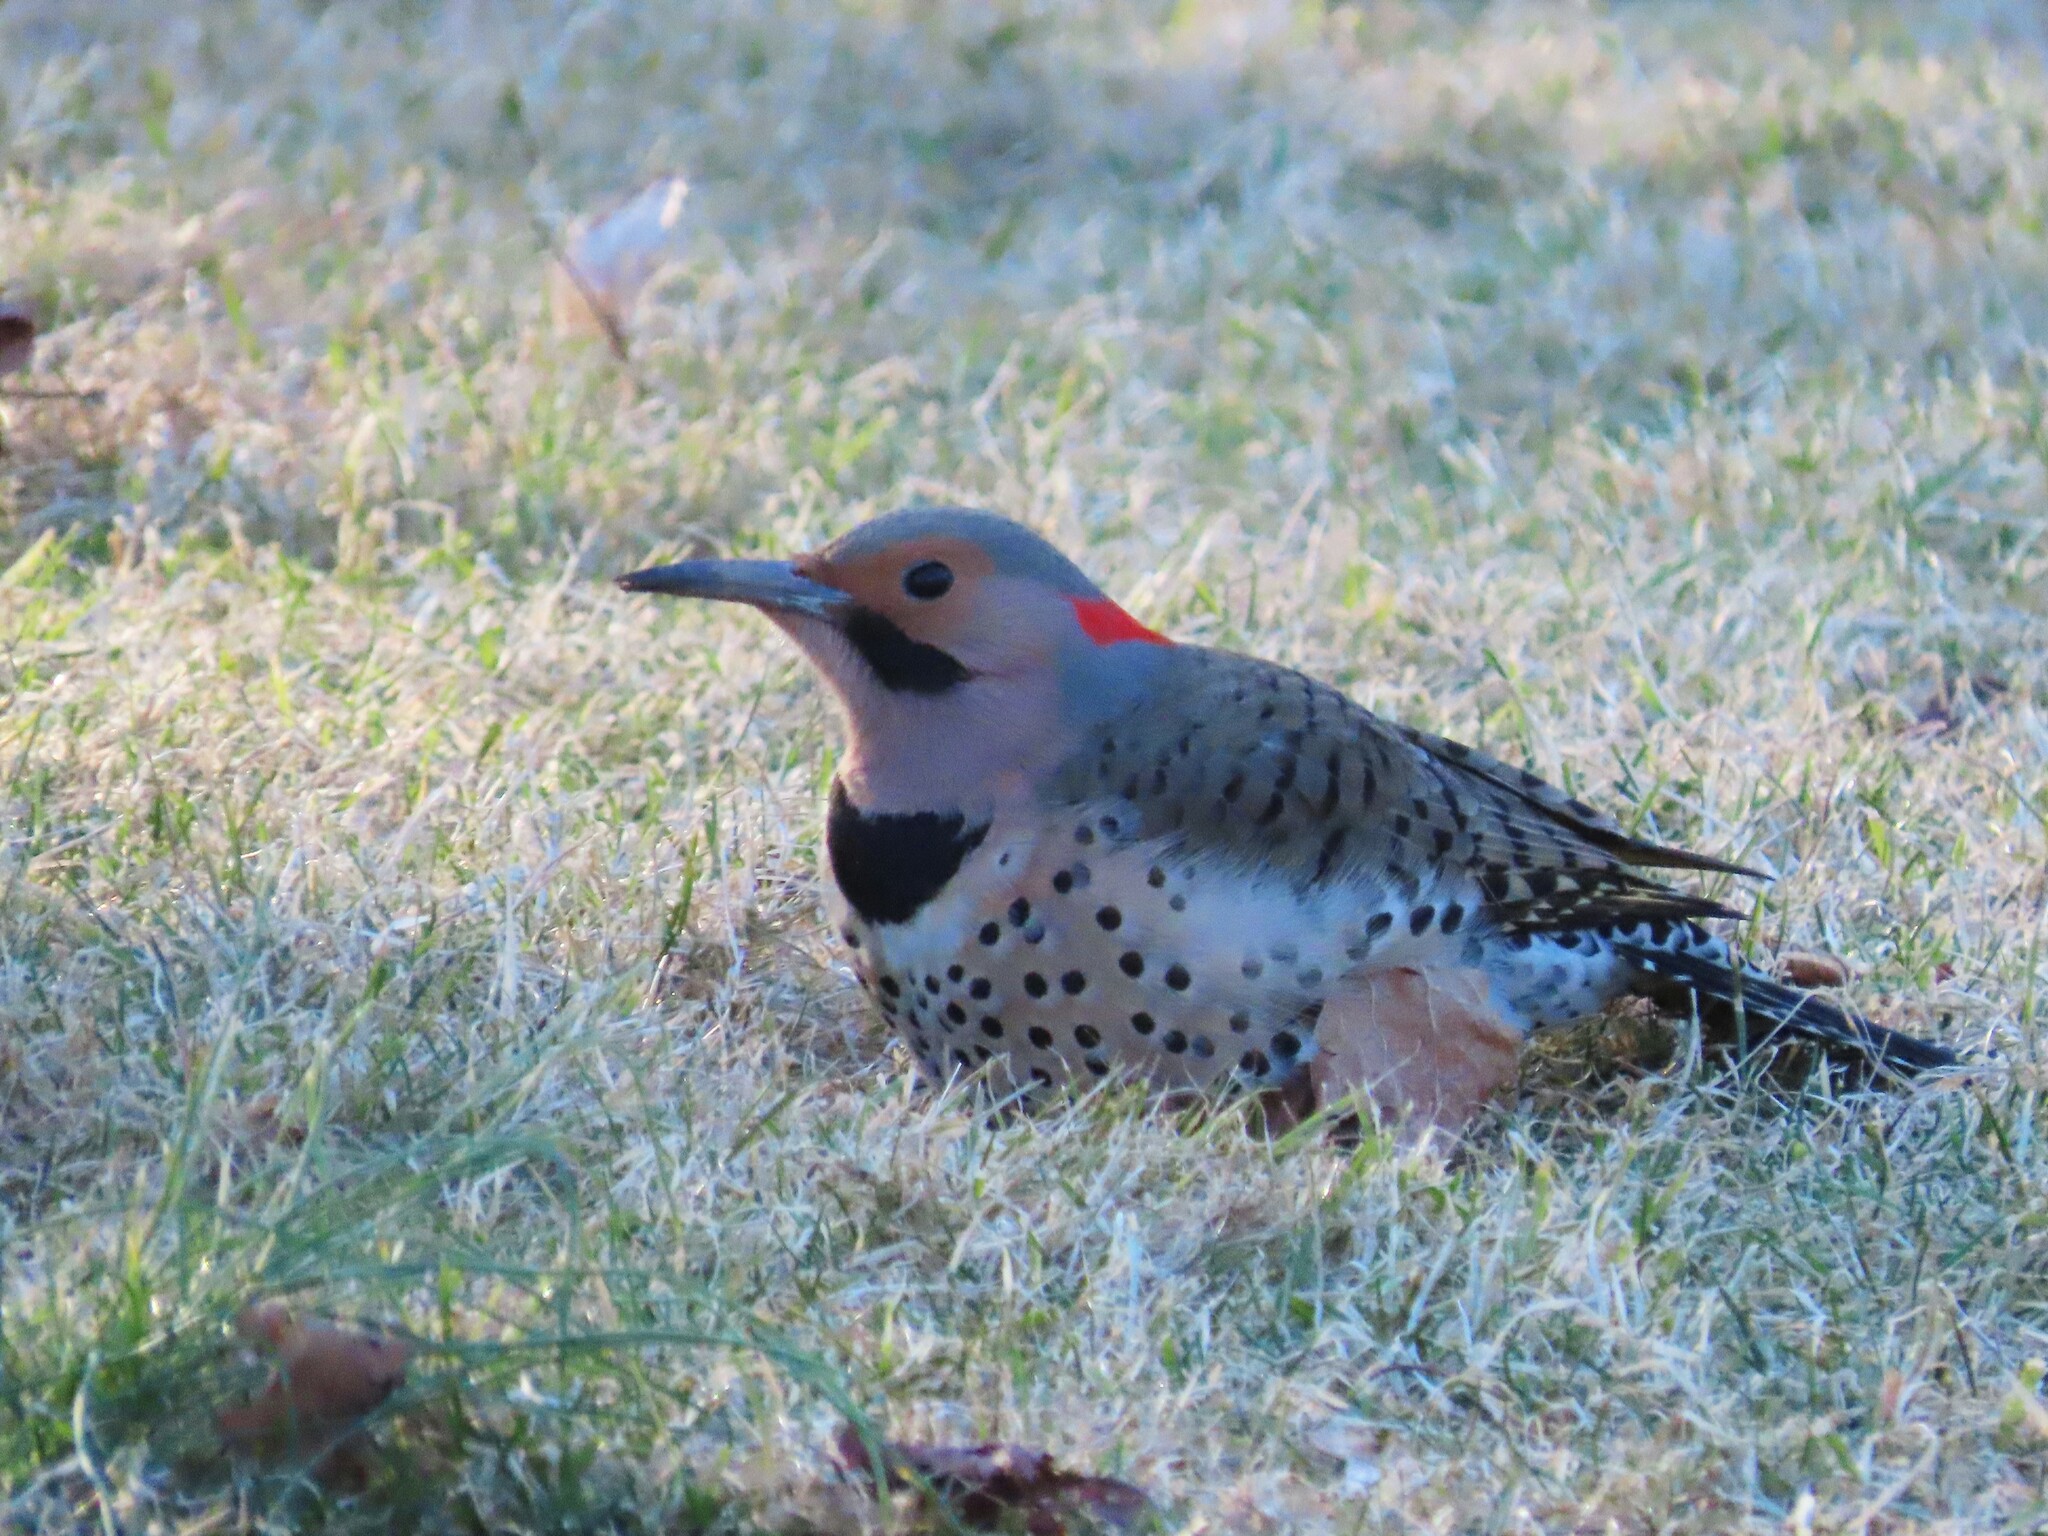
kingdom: Animalia
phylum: Chordata
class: Aves
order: Piciformes
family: Picidae
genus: Colaptes
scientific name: Colaptes auratus
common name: Northern flicker
